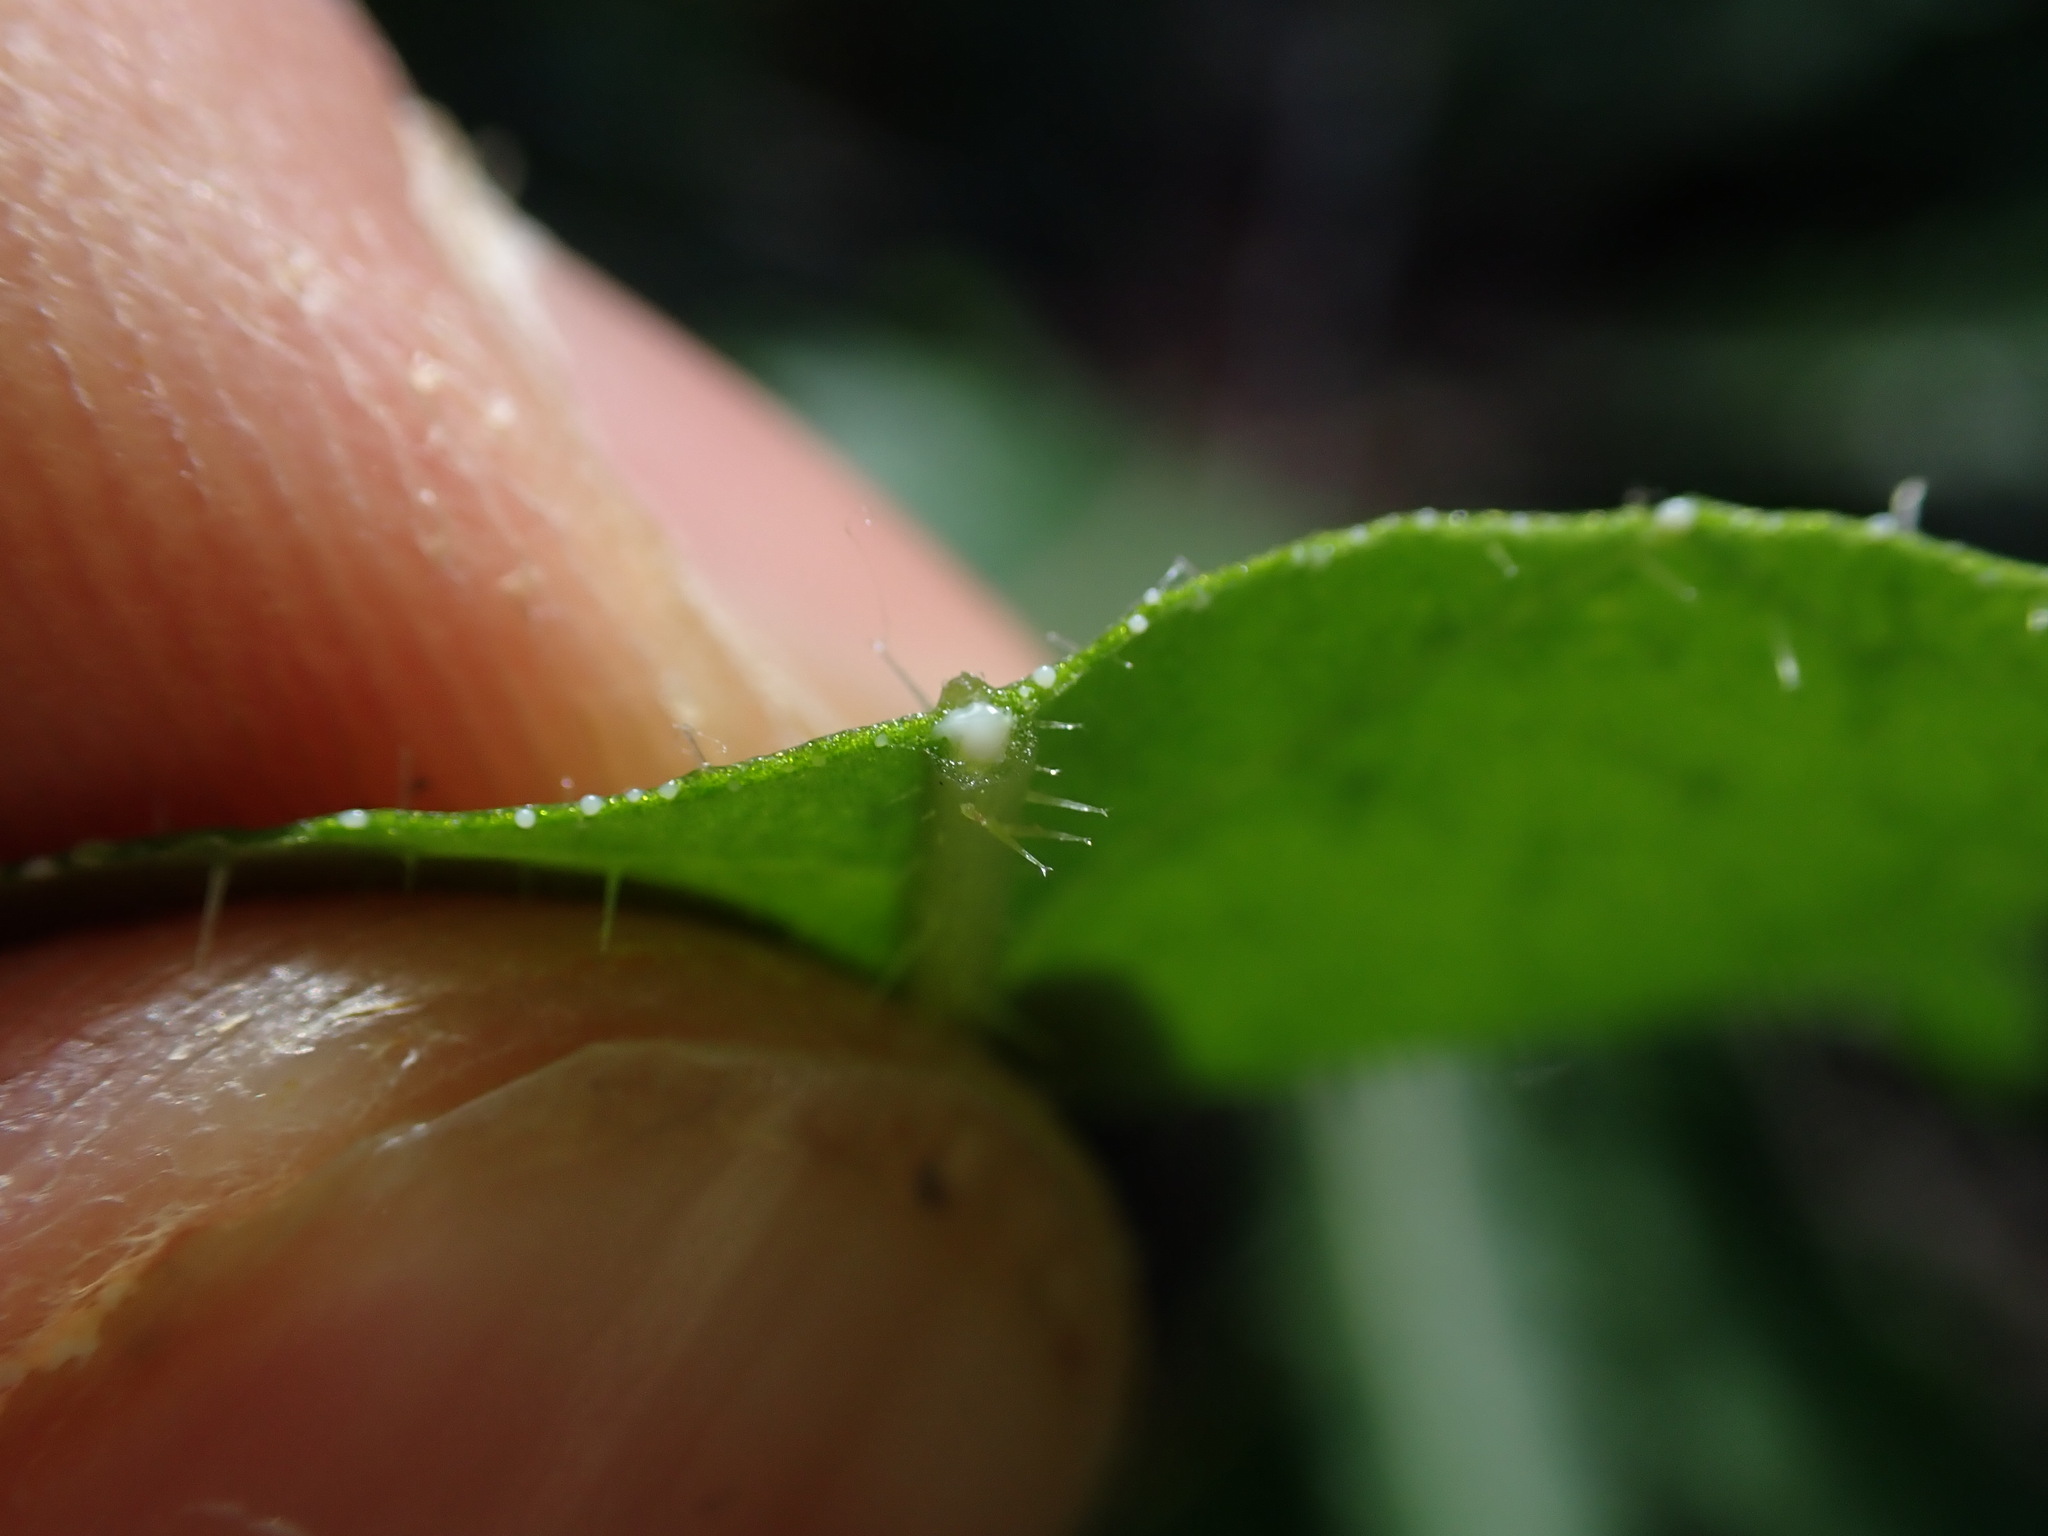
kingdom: Plantae
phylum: Tracheophyta
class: Magnoliopsida
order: Asterales
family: Asteraceae
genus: Picris
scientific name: Picris hieracioides
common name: Hawkweed oxtongue
